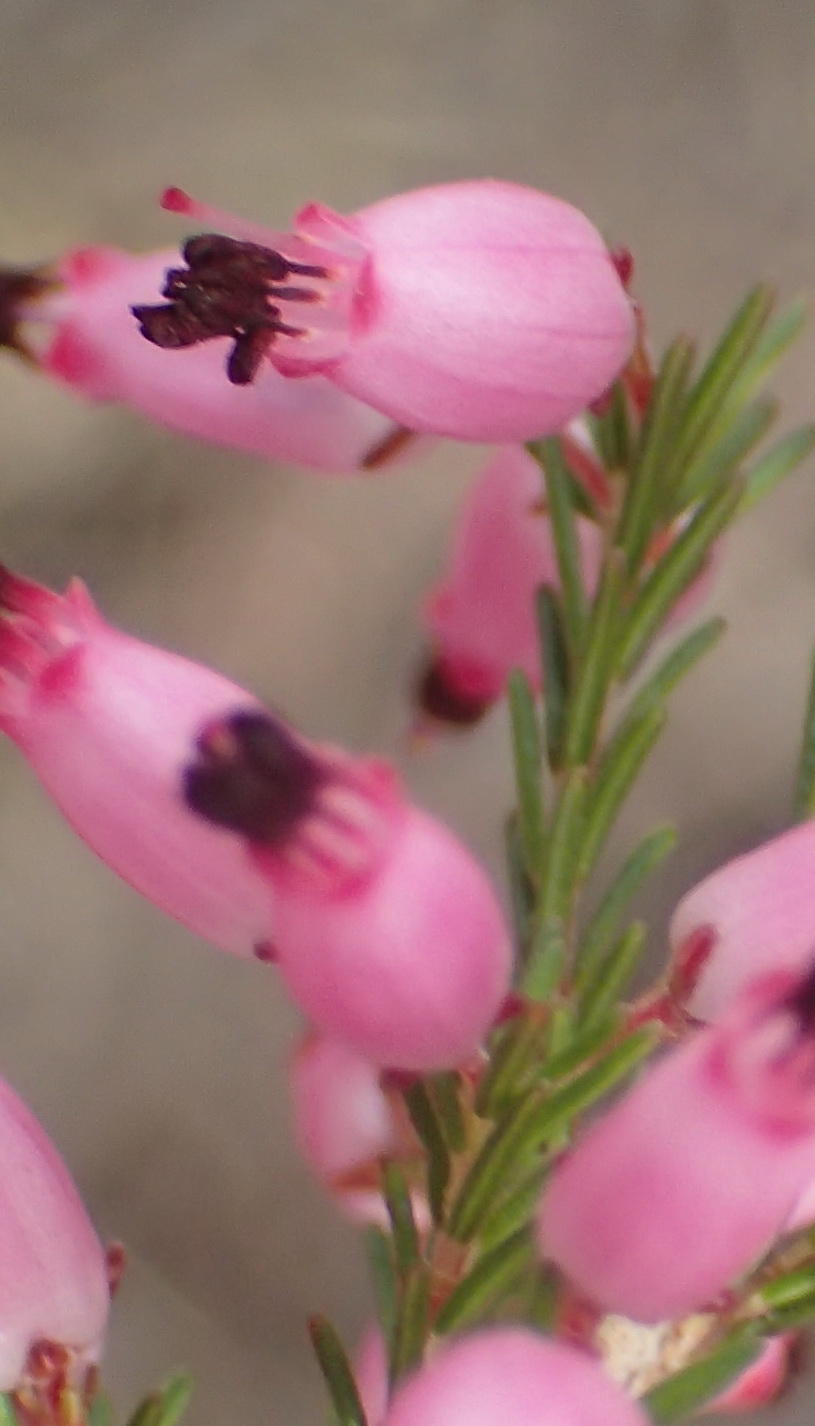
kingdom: Plantae
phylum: Tracheophyta
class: Magnoliopsida
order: Ericales
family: Ericaceae
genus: Erica
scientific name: Erica nutans
